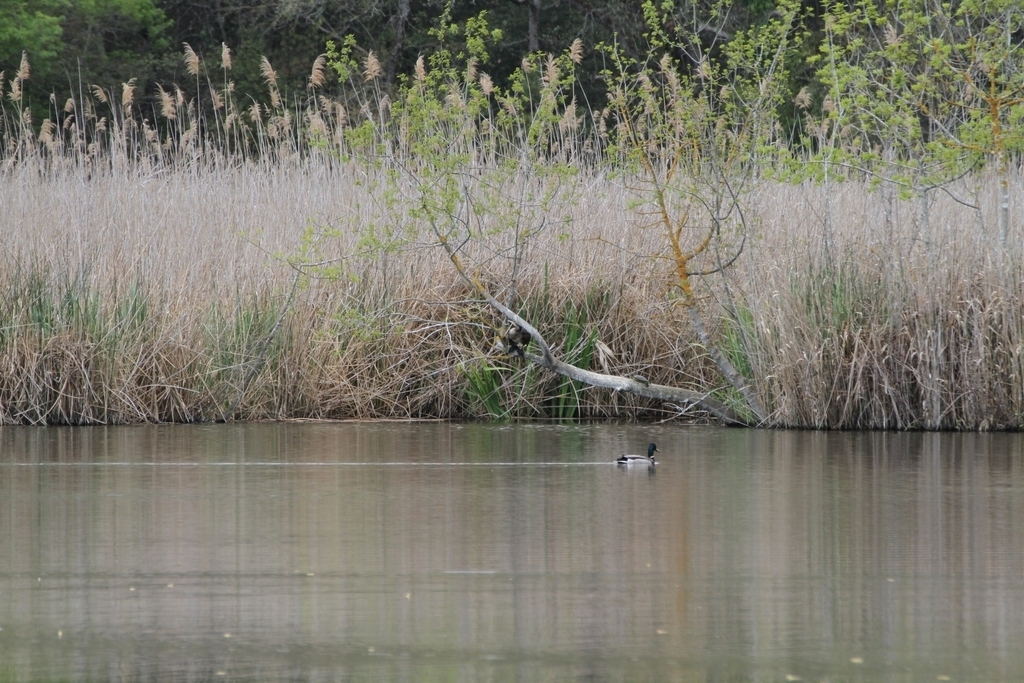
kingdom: Animalia
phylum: Chordata
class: Testudines
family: Emydidae
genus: Trachemys
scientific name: Trachemys scripta
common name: Slider
